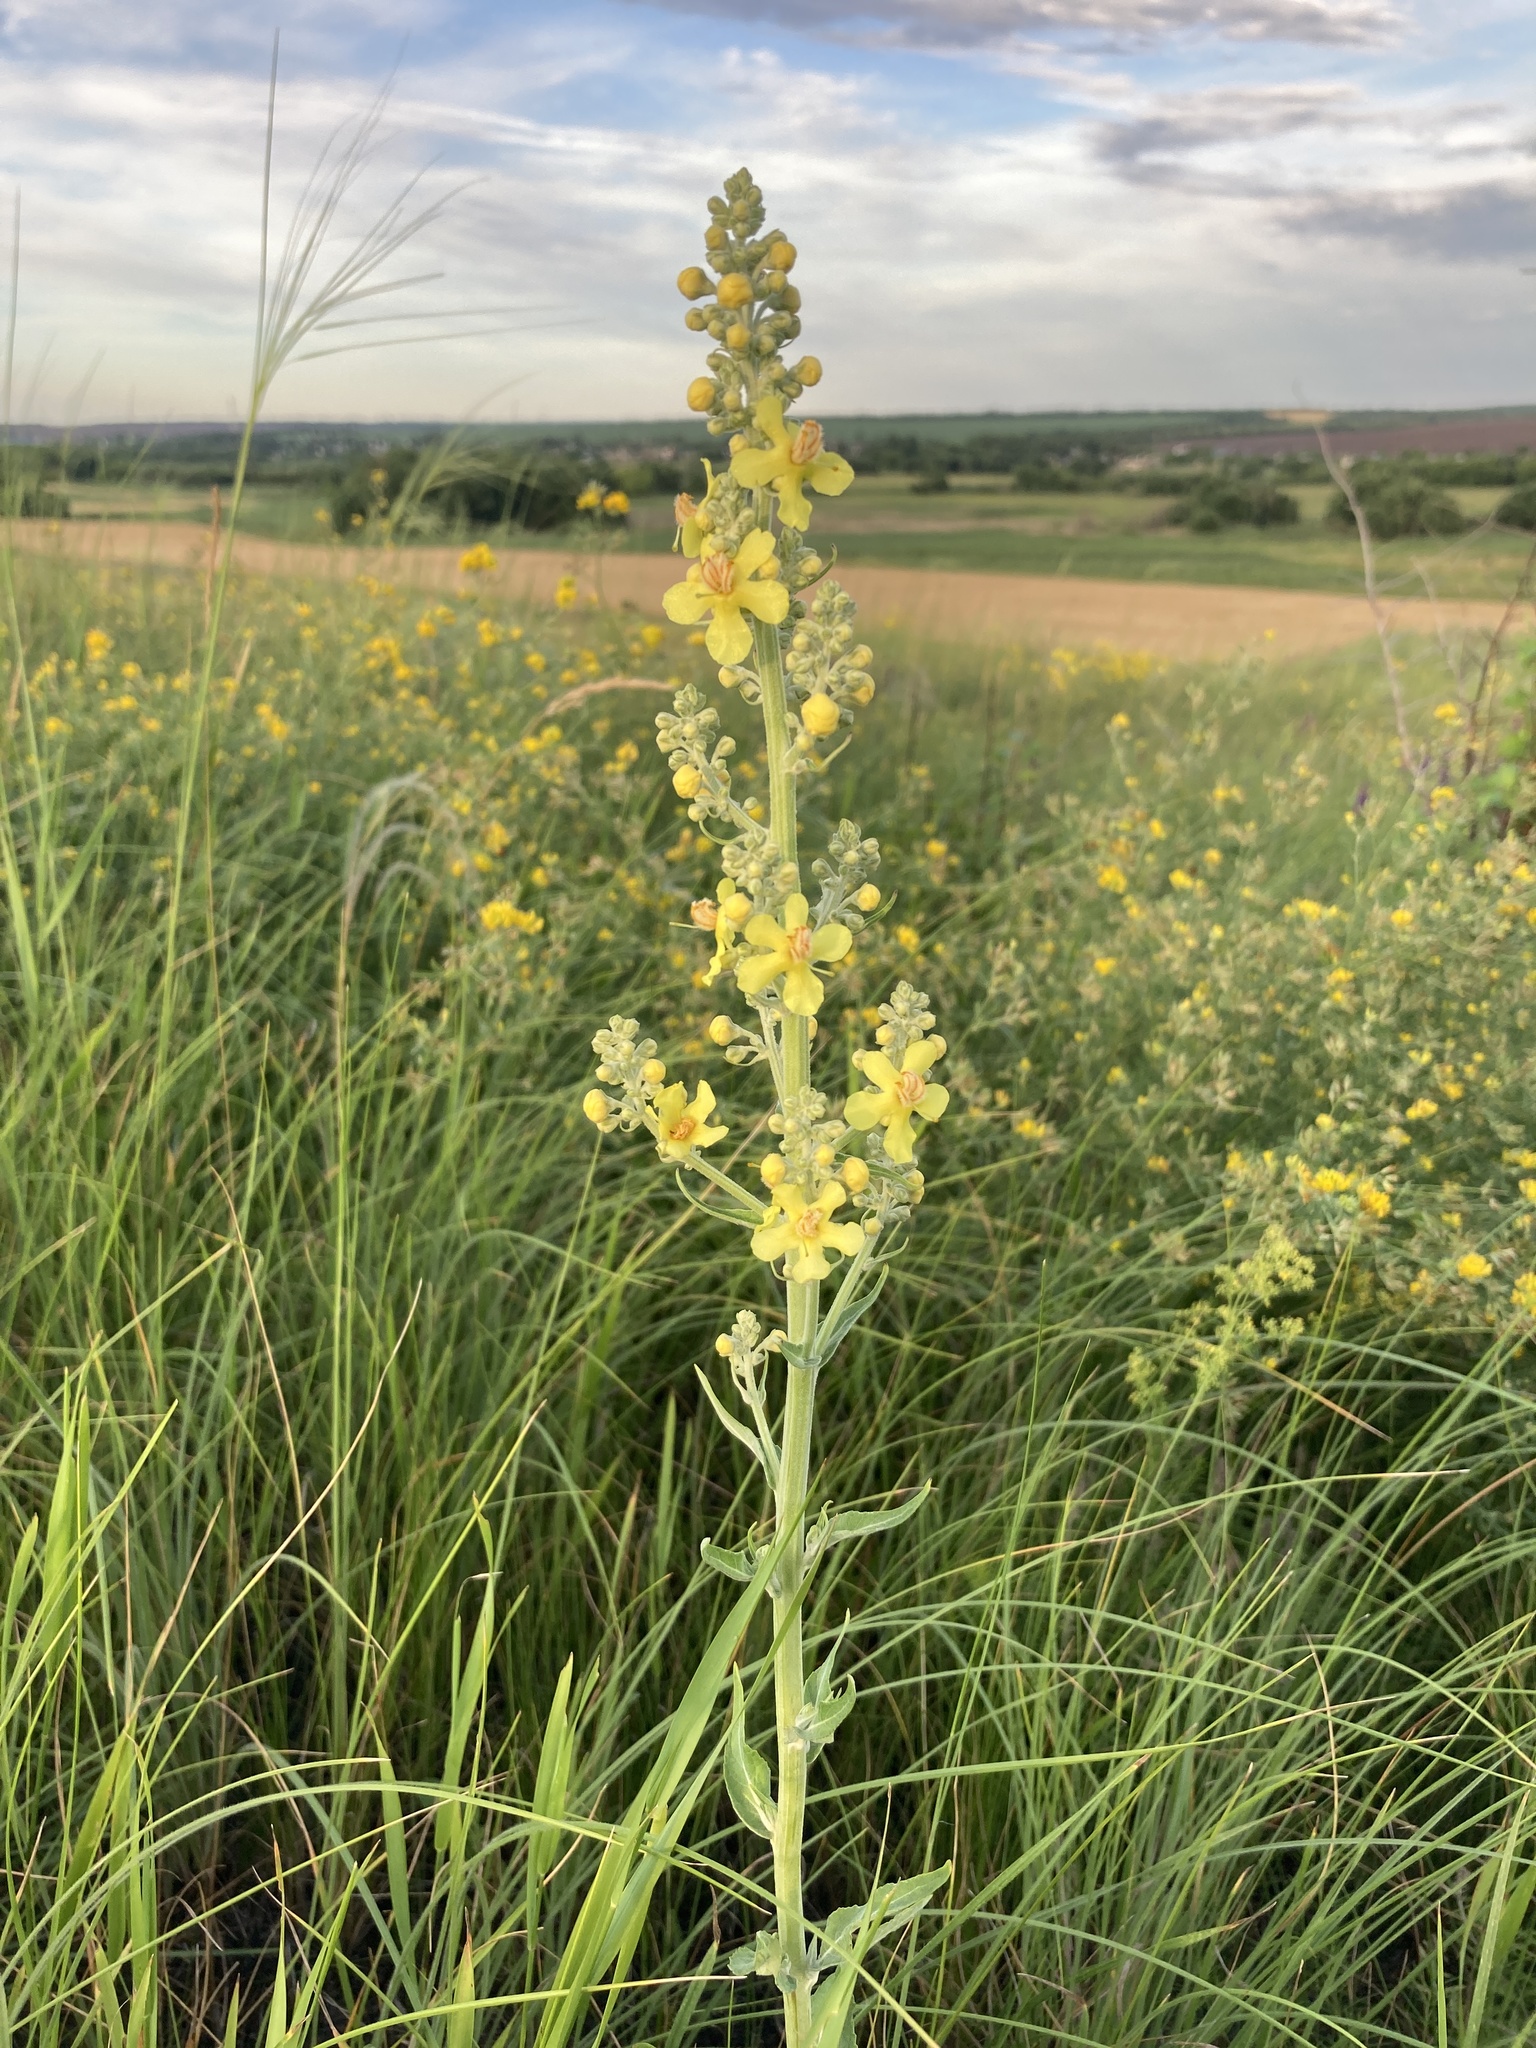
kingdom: Plantae
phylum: Tracheophyta
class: Magnoliopsida
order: Lamiales
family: Scrophulariaceae
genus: Verbascum
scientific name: Verbascum lychnitis
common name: White mullein
